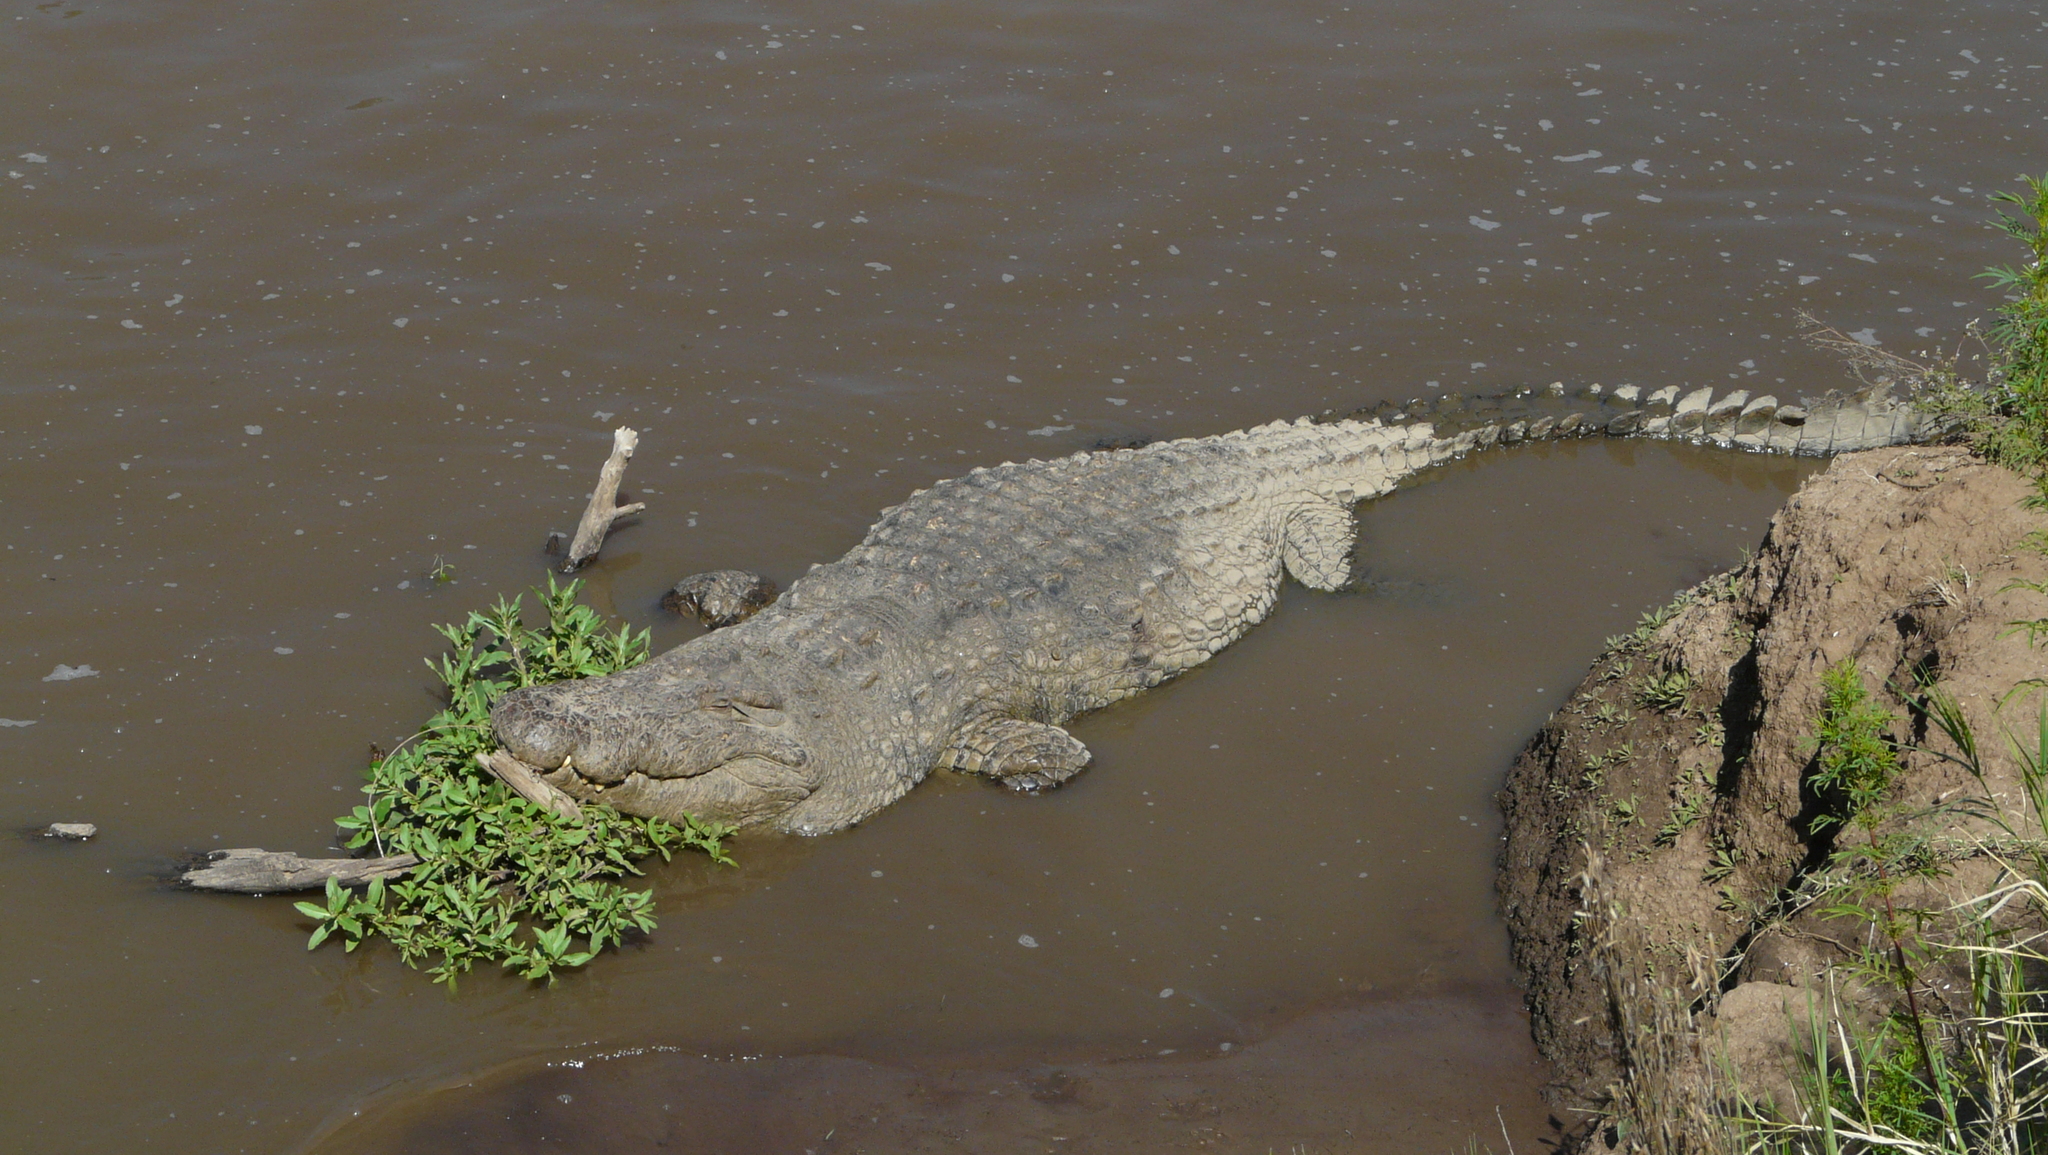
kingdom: Animalia
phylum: Chordata
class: Crocodylia
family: Crocodylidae
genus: Crocodylus
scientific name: Crocodylus niloticus
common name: Nile crocodile
